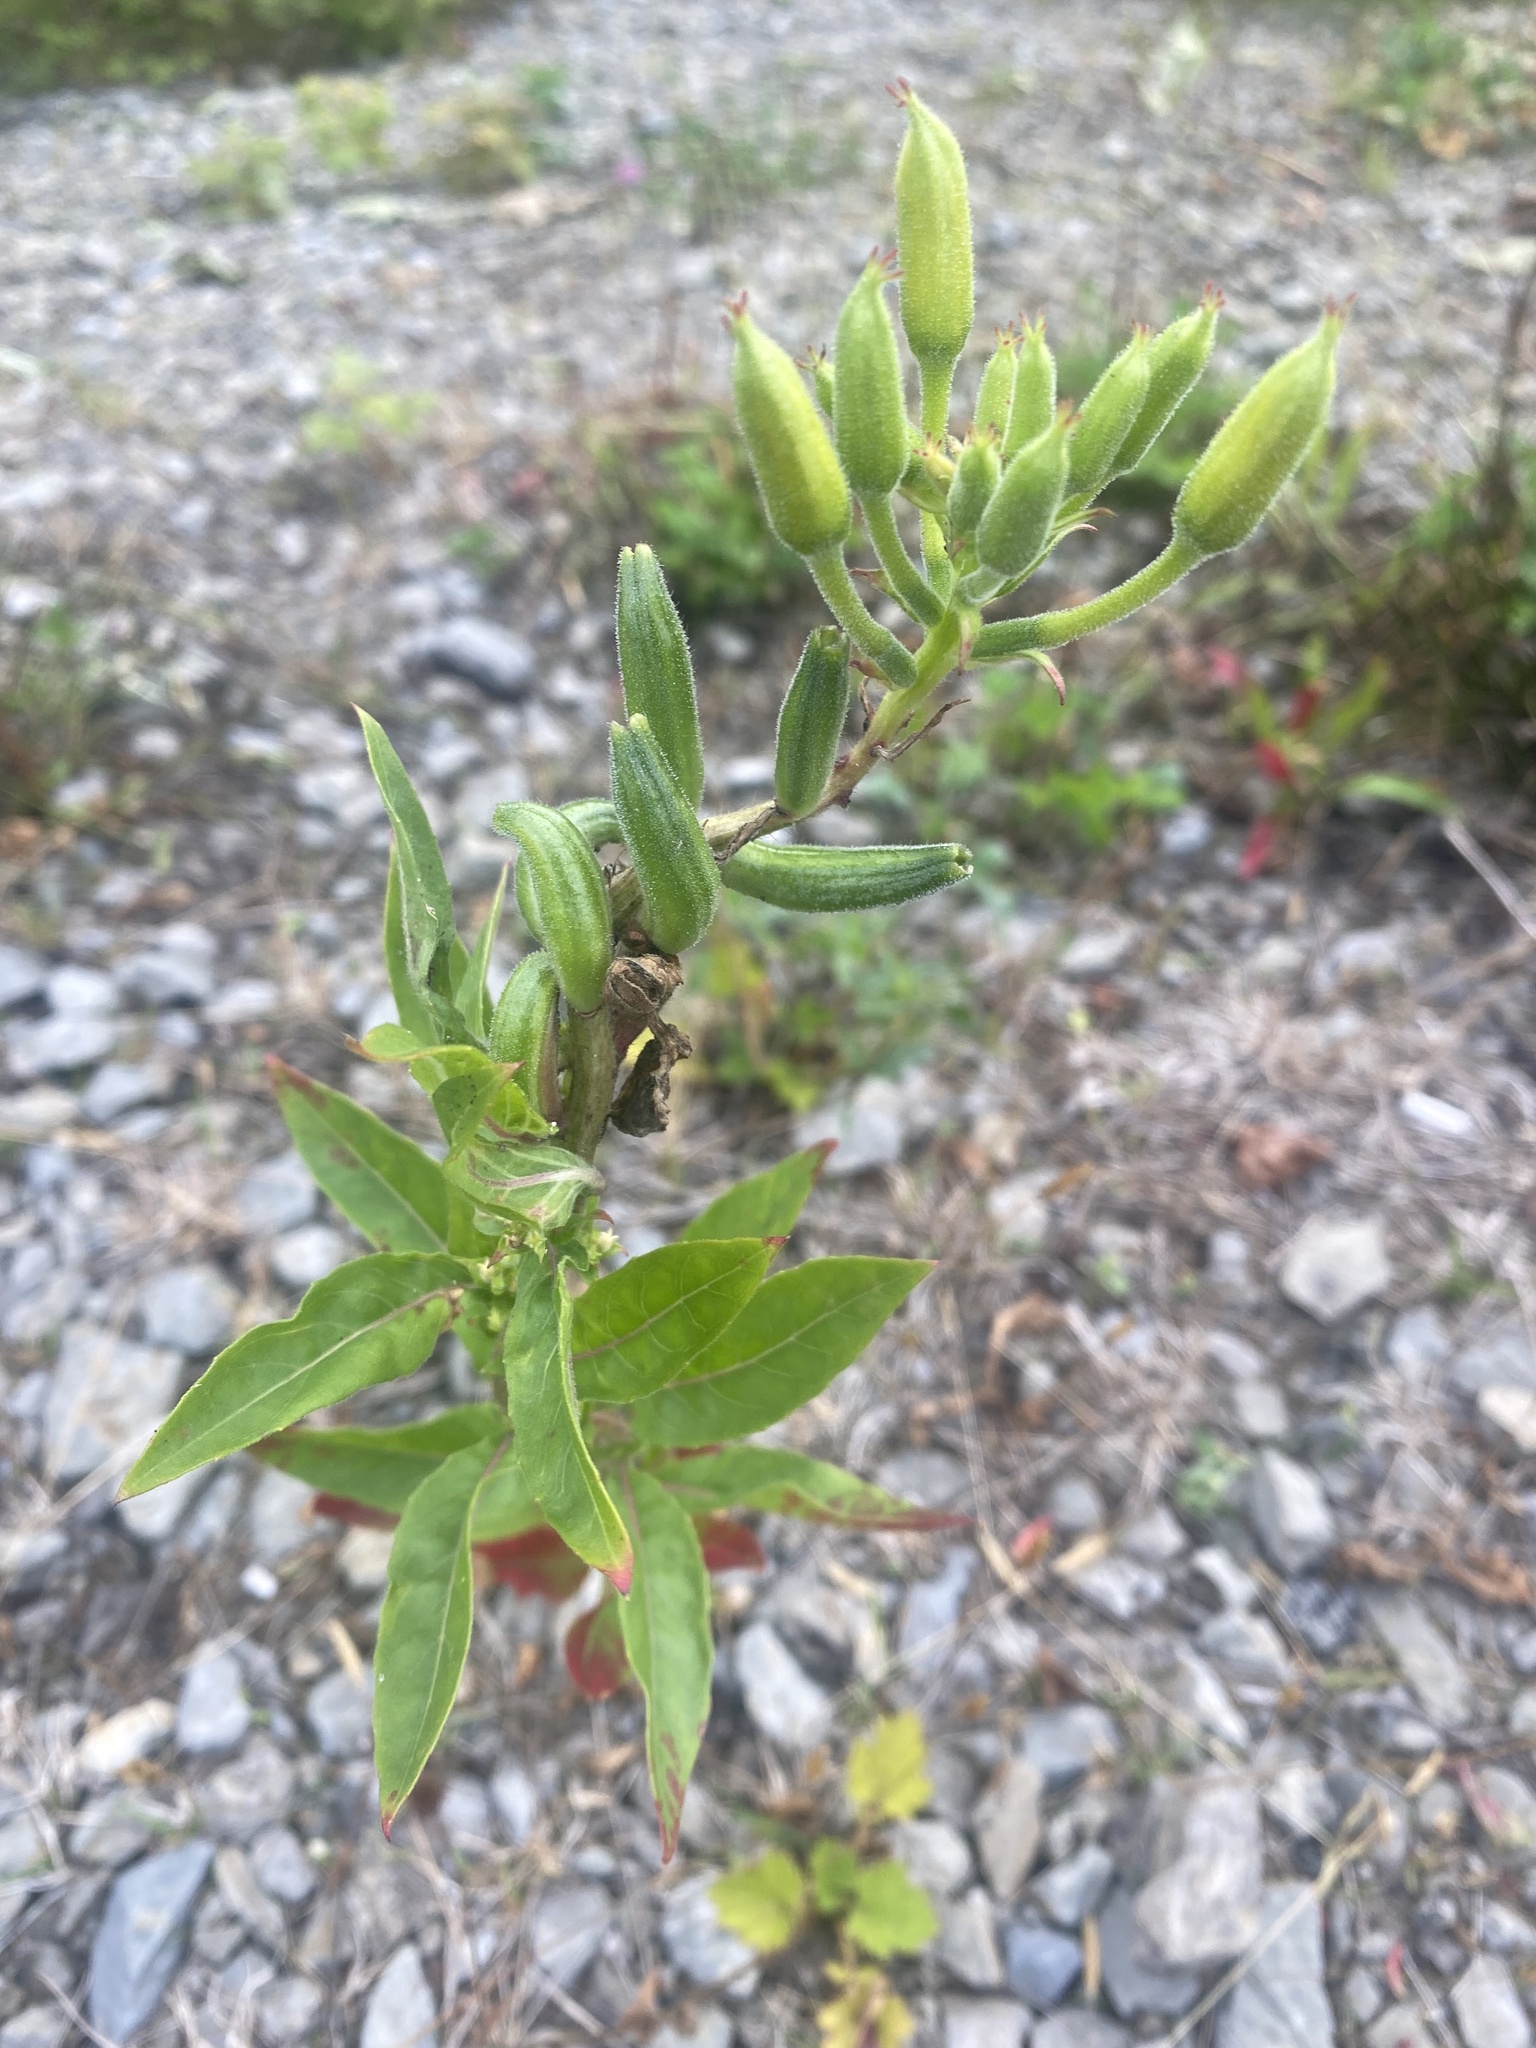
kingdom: Plantae
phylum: Tracheophyta
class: Magnoliopsida
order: Myrtales
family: Onagraceae
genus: Oenothera
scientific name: Oenothera biennis
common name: Common evening-primrose
